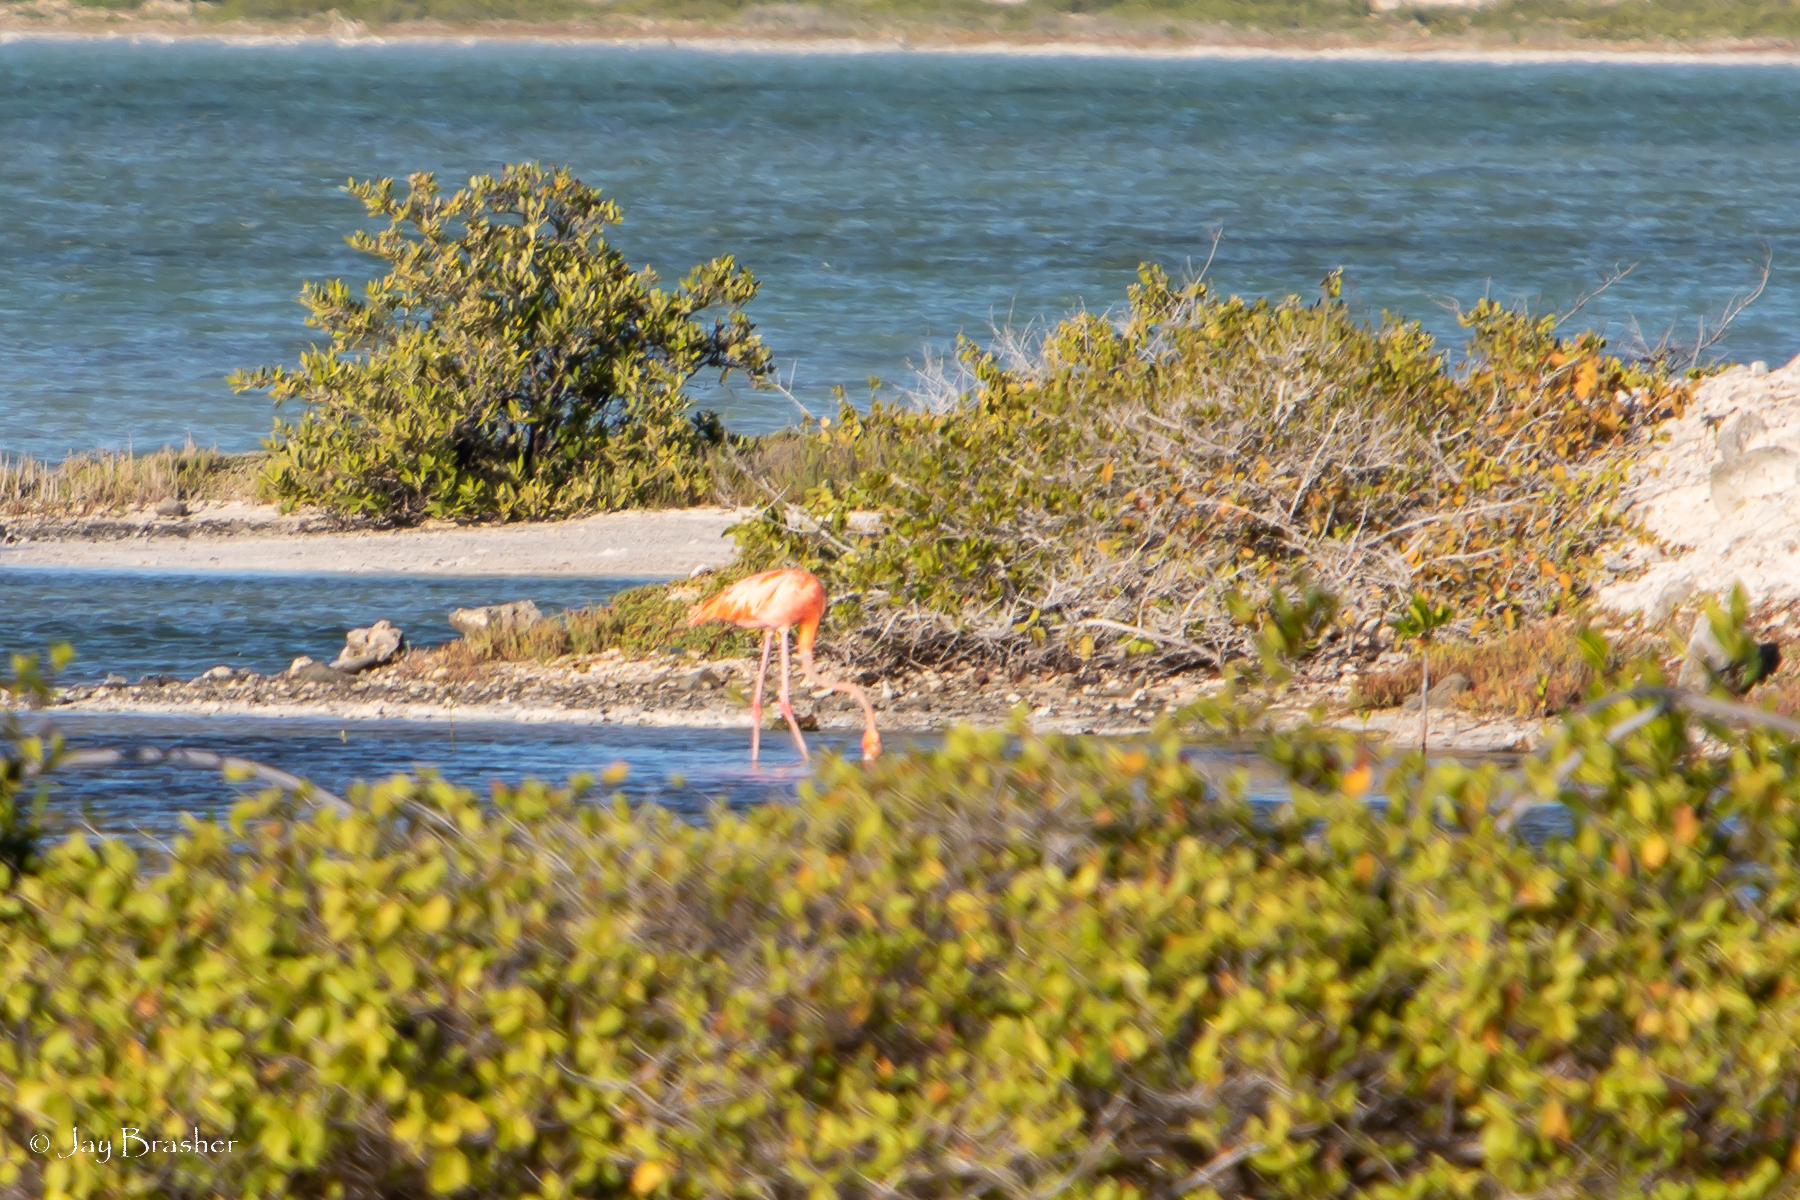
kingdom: Animalia
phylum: Chordata
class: Aves
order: Phoenicopteriformes
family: Phoenicopteridae
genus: Phoenicopterus
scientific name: Phoenicopterus ruber
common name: American flamingo
